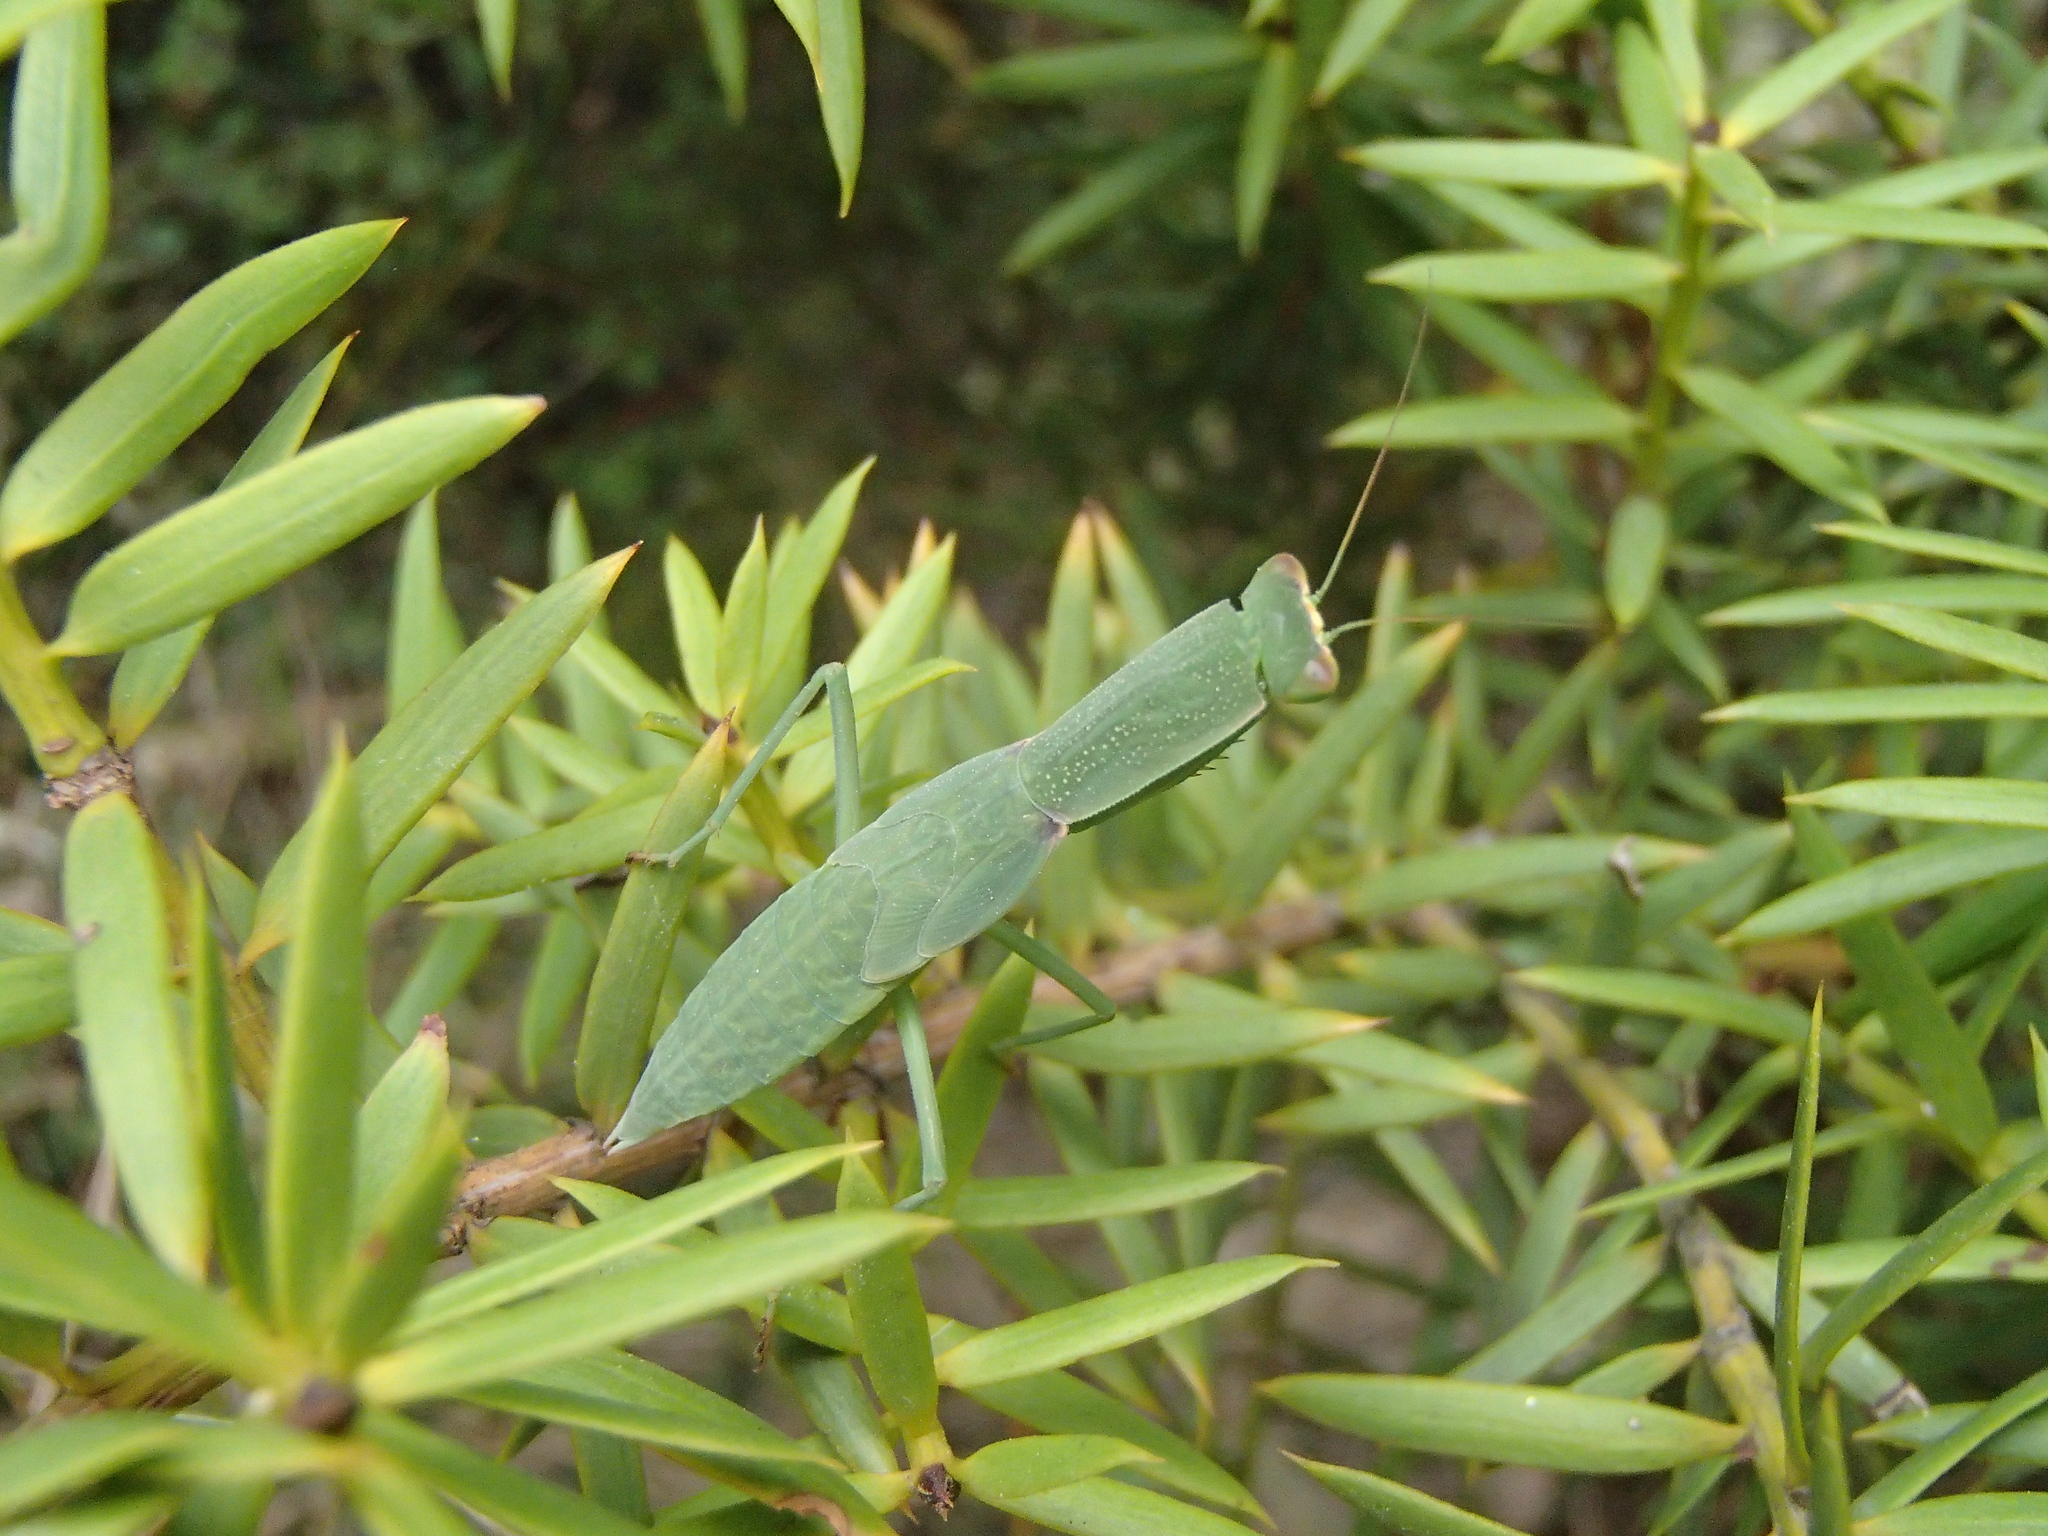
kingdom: Animalia
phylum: Arthropoda
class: Insecta
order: Mantodea
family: Mantidae
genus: Orthodera
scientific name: Orthodera novaezealandiae
